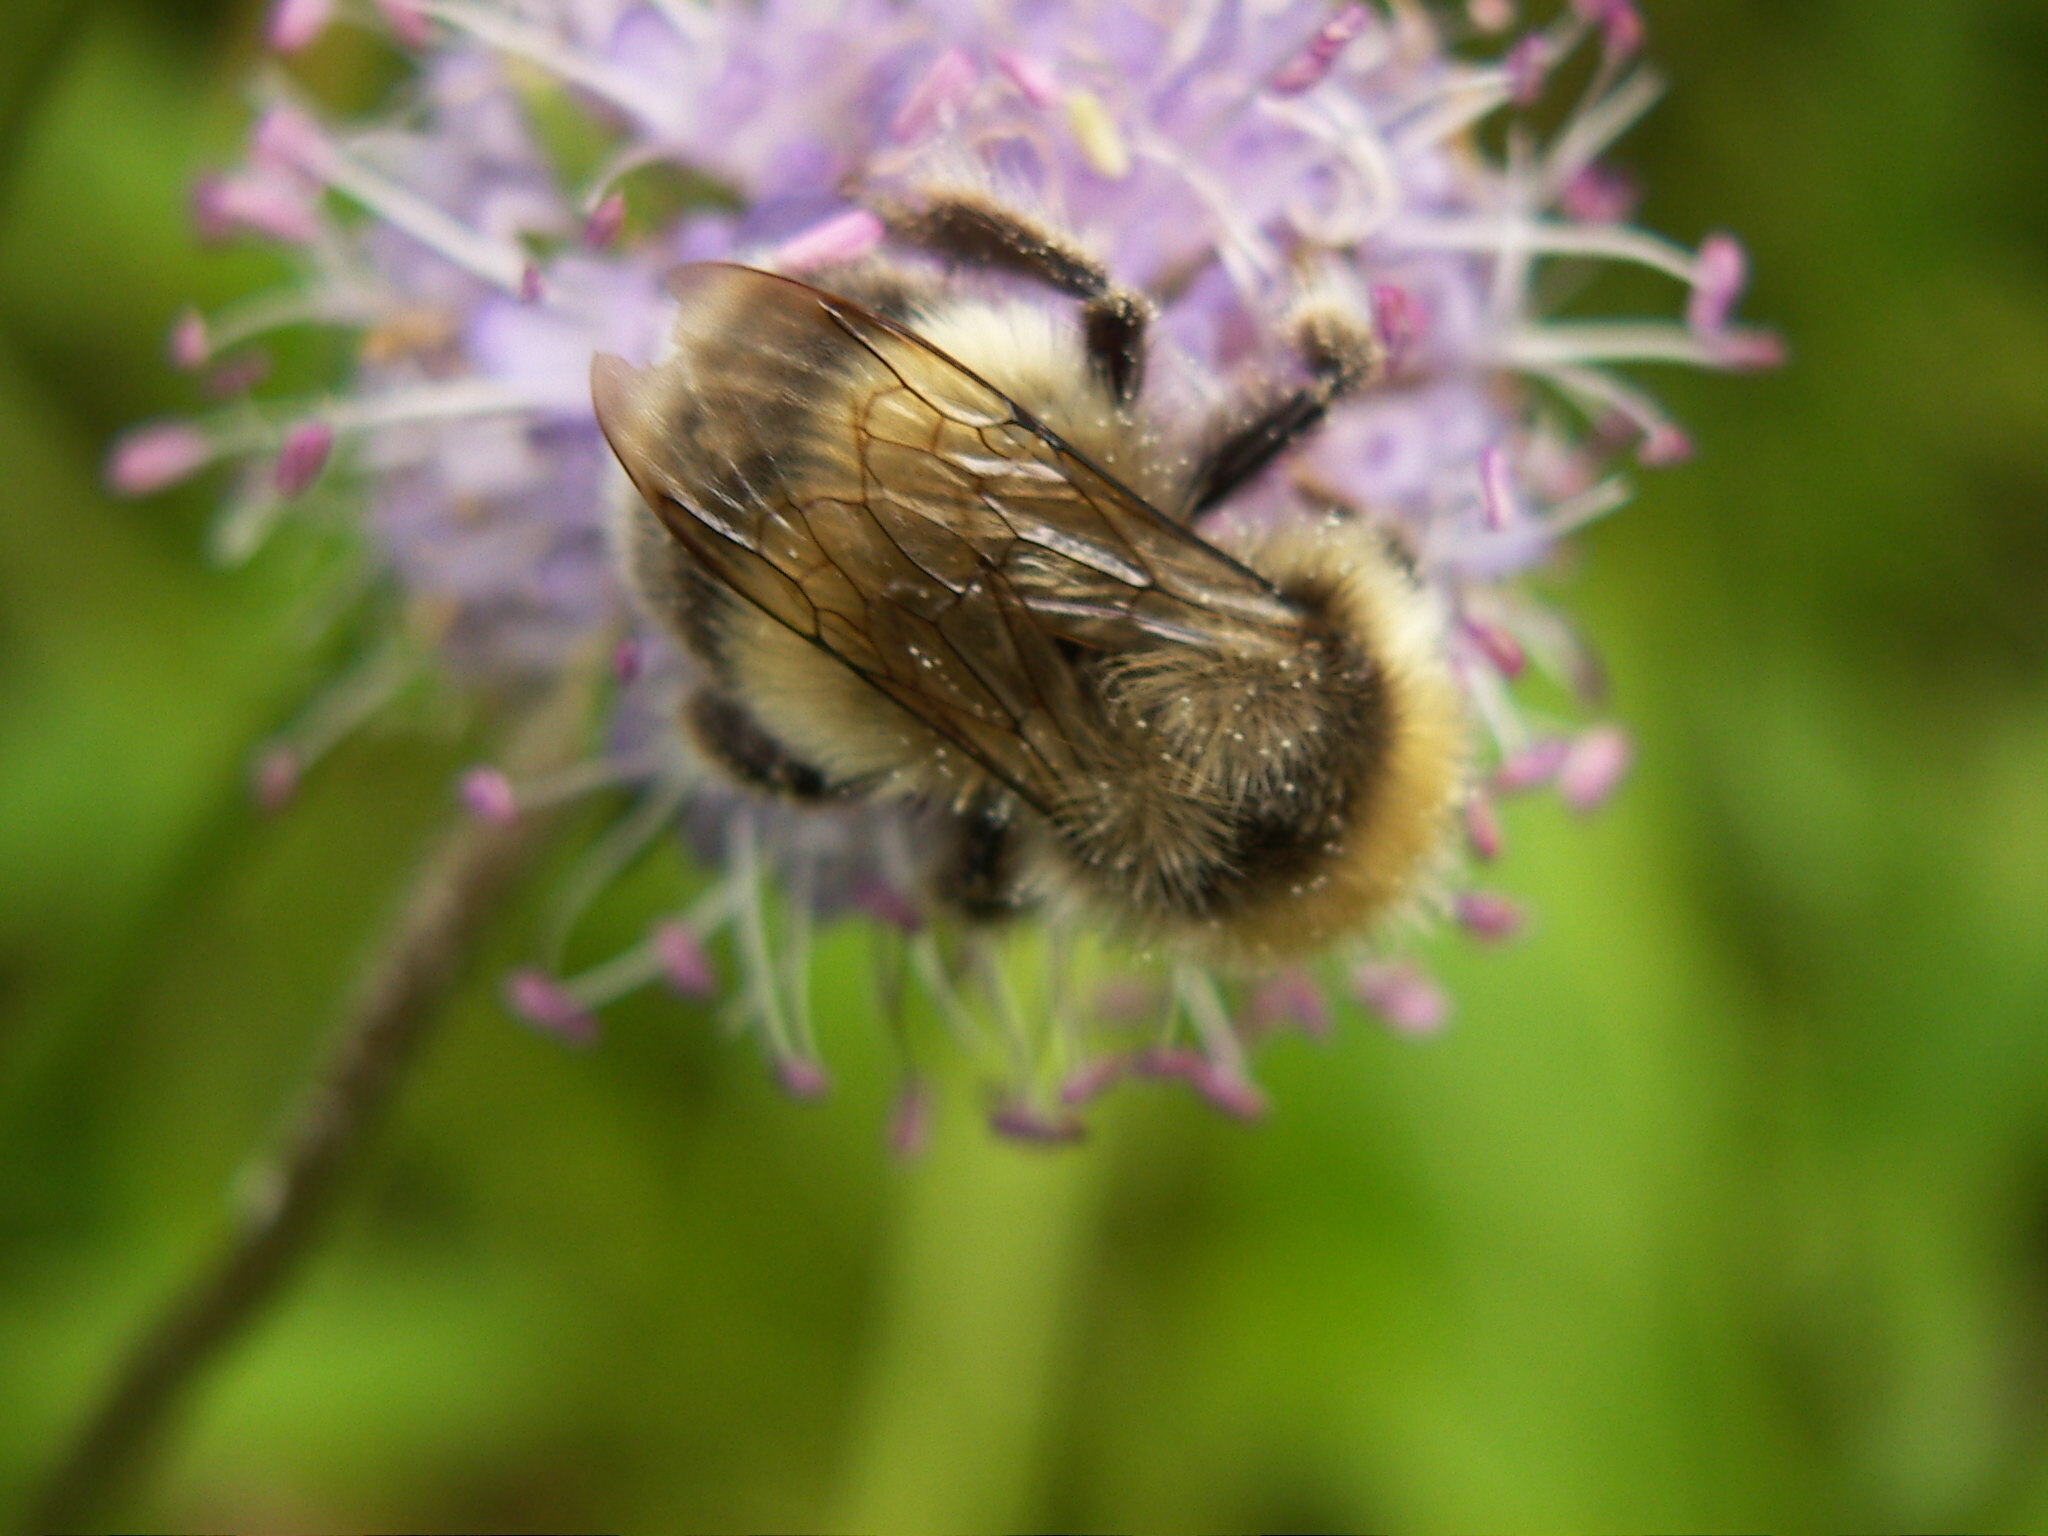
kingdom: Animalia
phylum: Arthropoda
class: Insecta
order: Hymenoptera
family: Apidae
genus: Bombus
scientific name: Bombus lucorum
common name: White-tailed bumblebee
